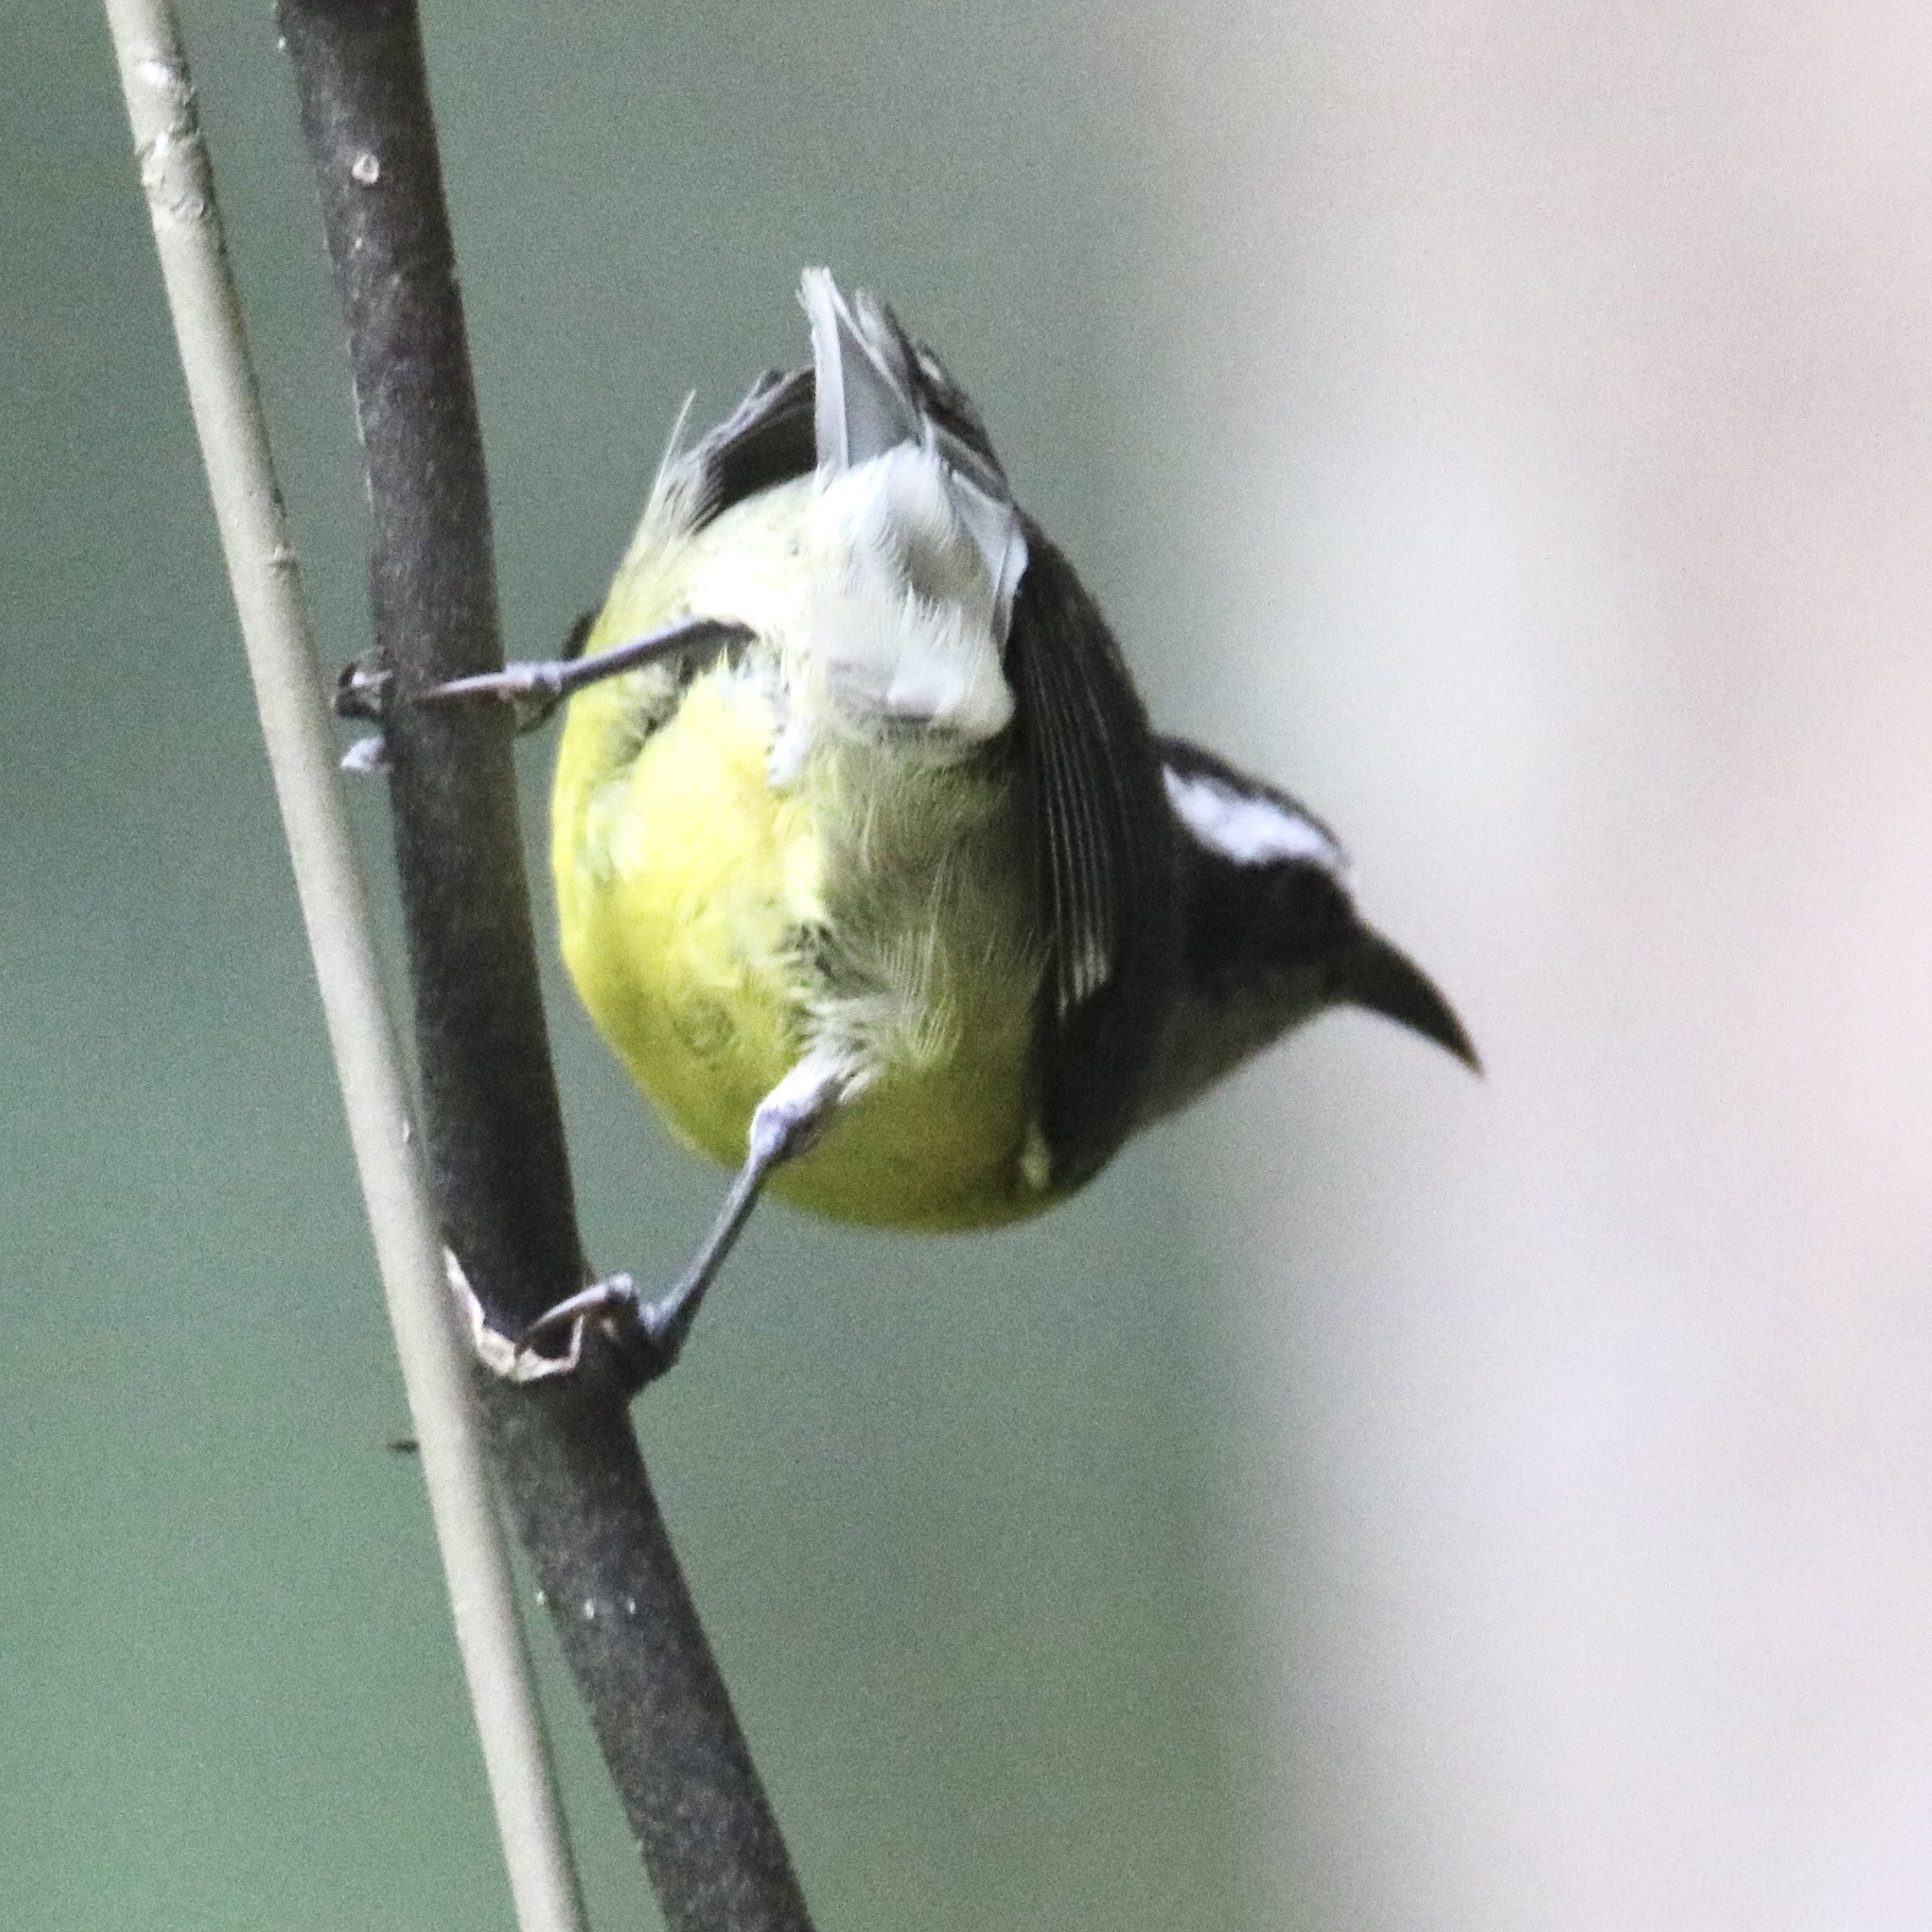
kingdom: Animalia
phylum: Chordata
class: Aves
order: Passeriformes
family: Thraupidae
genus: Coereba
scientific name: Coereba flaveola
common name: Bananaquit
